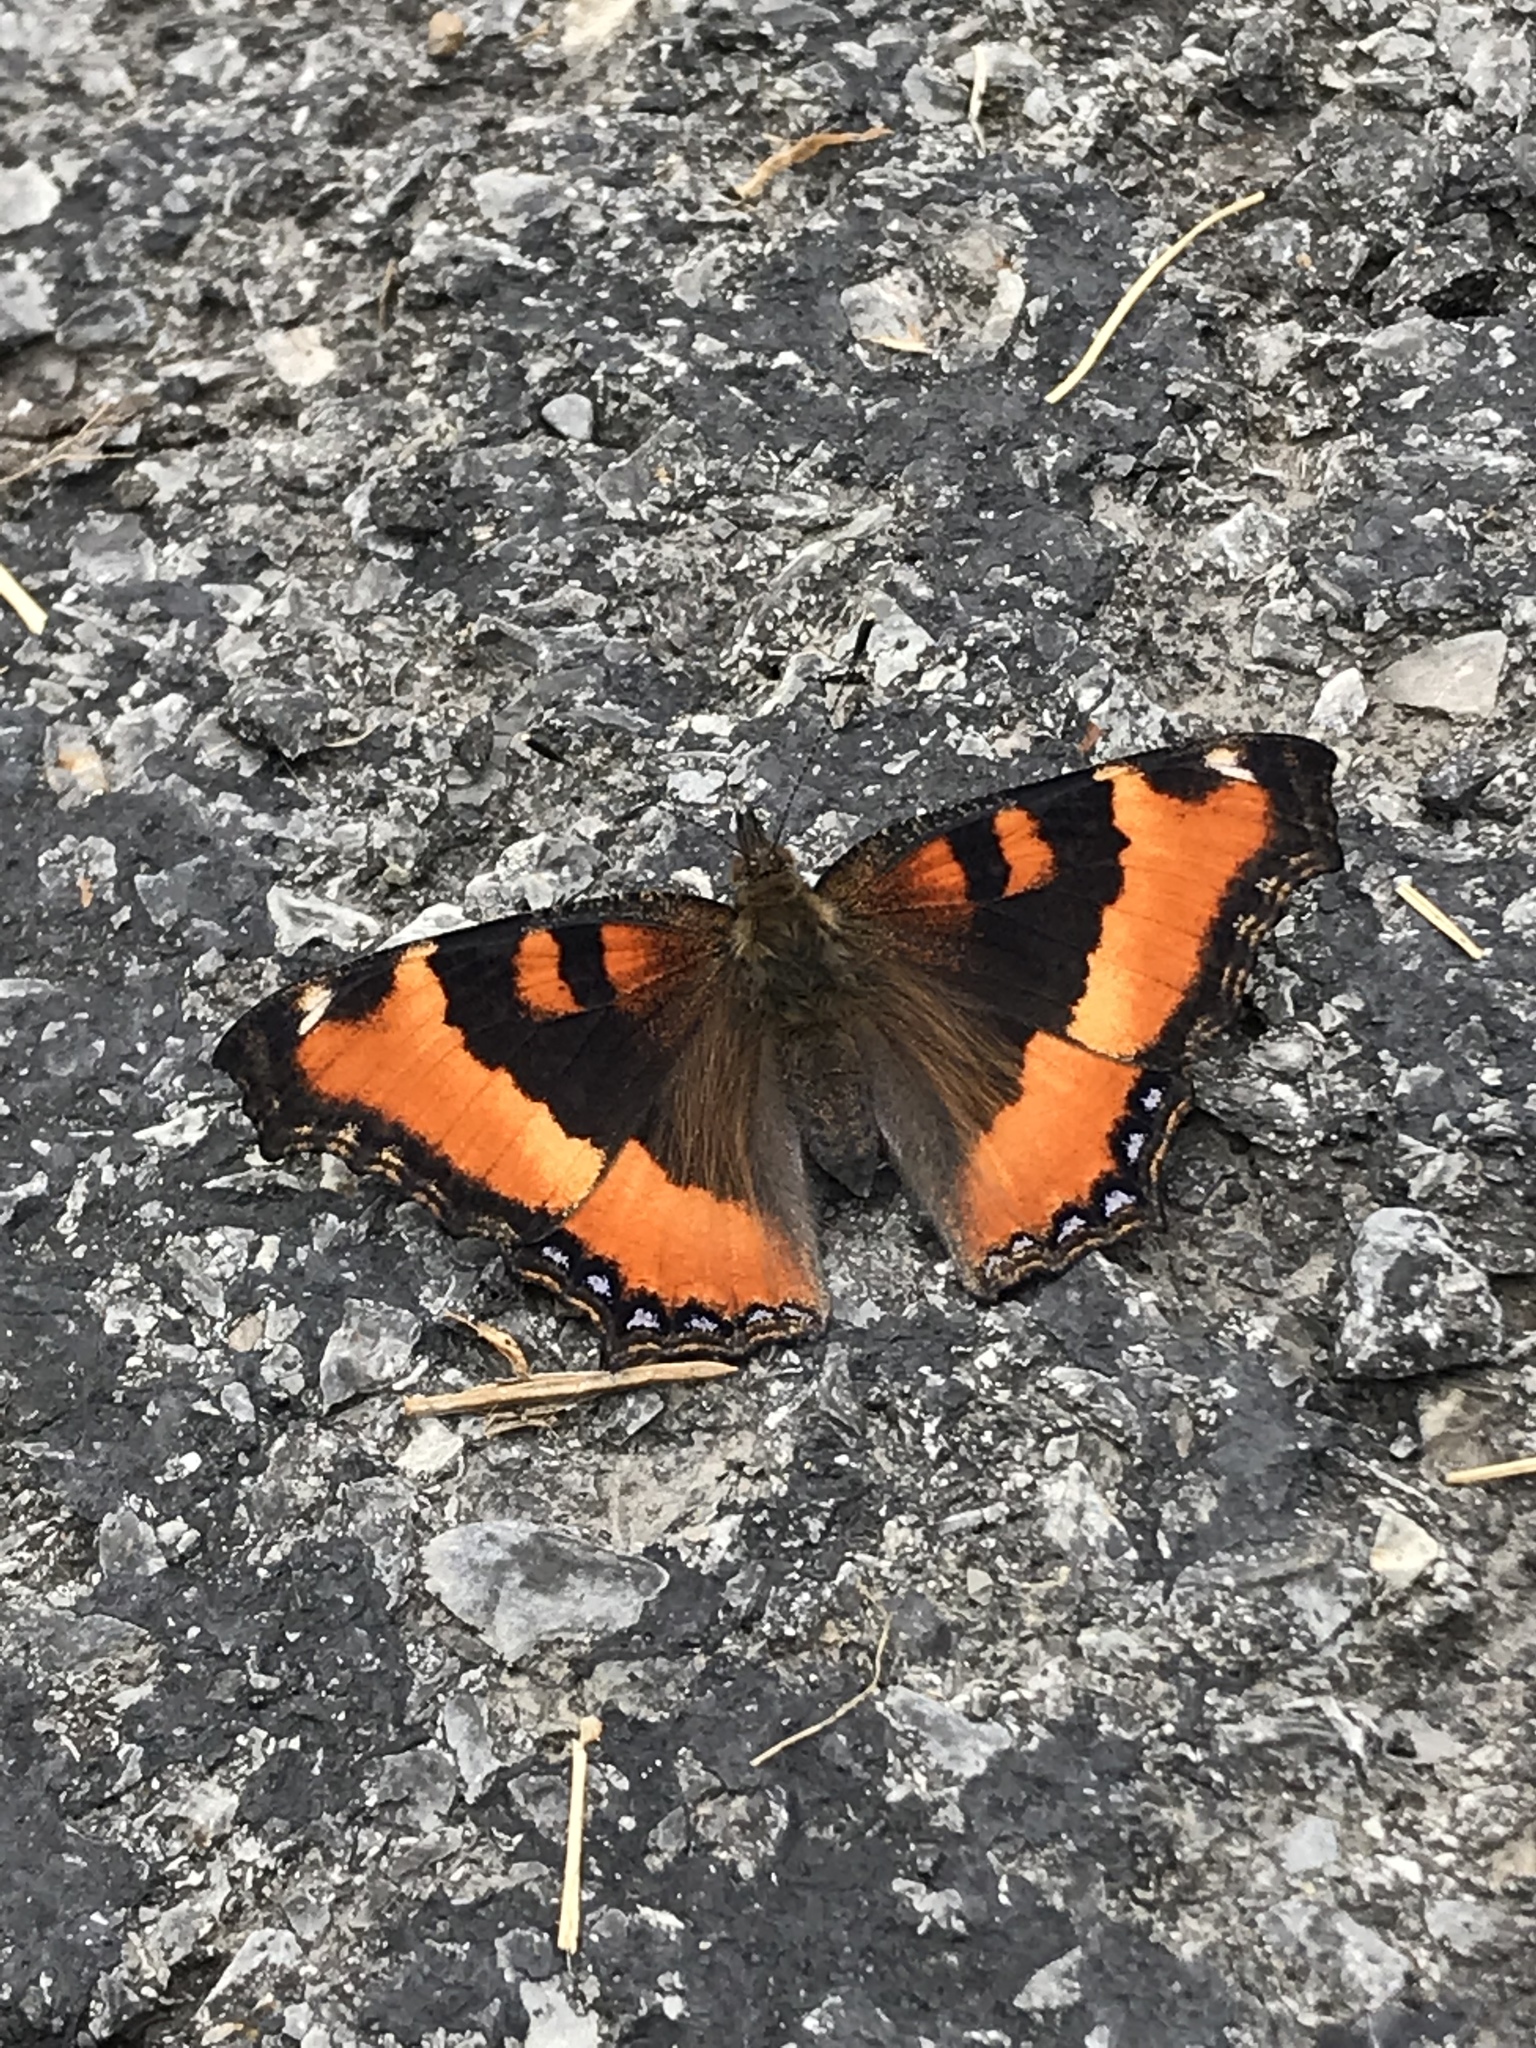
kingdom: Animalia
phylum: Arthropoda
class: Insecta
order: Lepidoptera
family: Nymphalidae
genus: Aglais
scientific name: Aglais milberti
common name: Milbert's tortoiseshell
